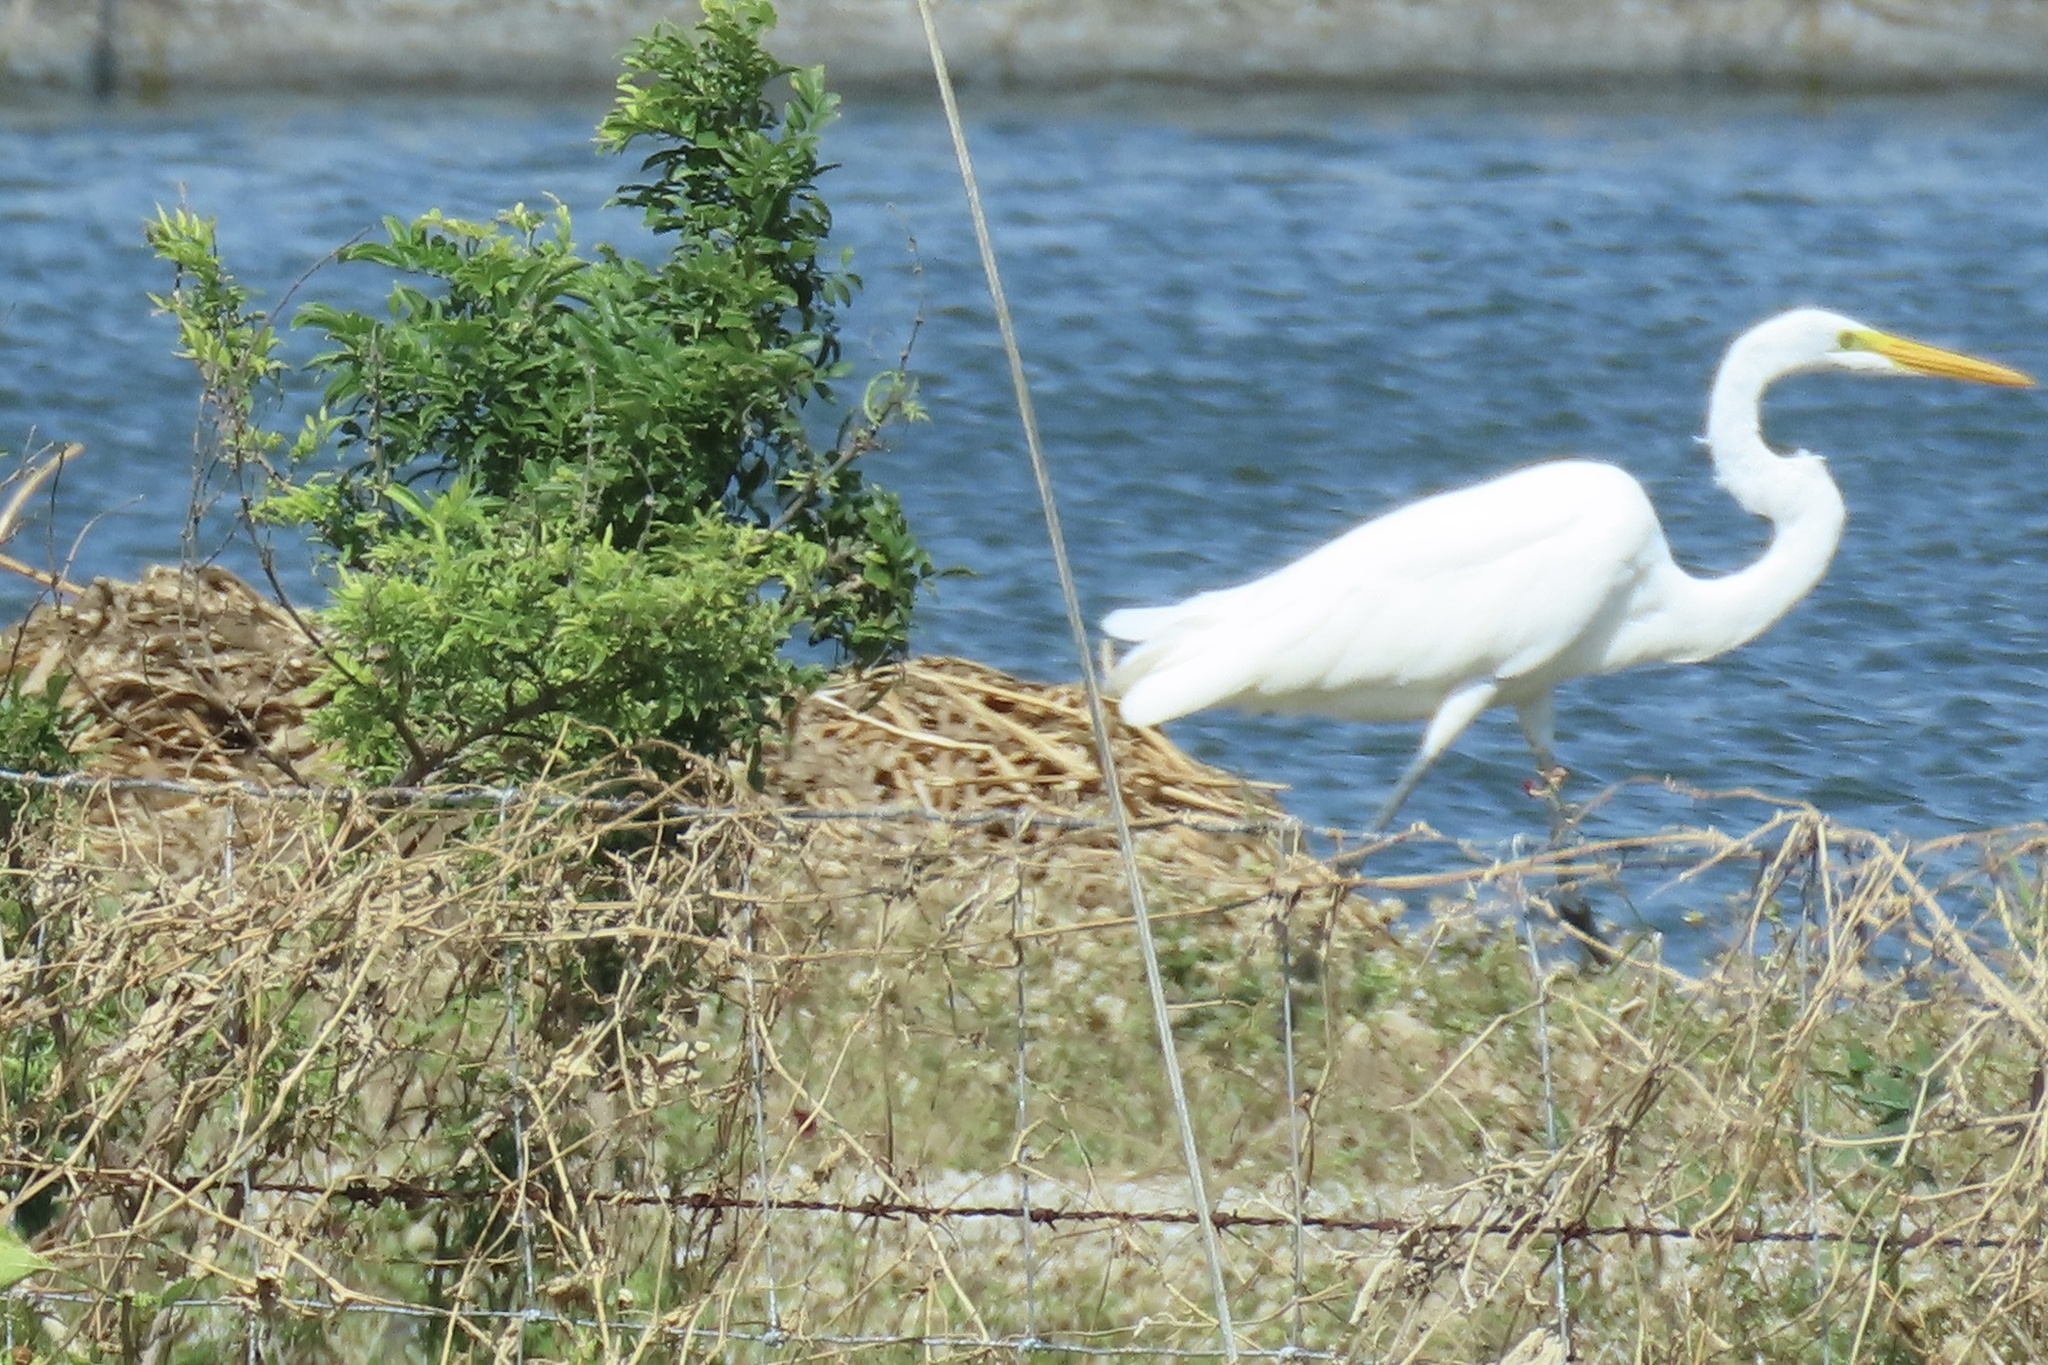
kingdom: Animalia
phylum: Chordata
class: Aves
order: Pelecaniformes
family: Ardeidae
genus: Ardea
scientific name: Ardea alba
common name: Great egret
